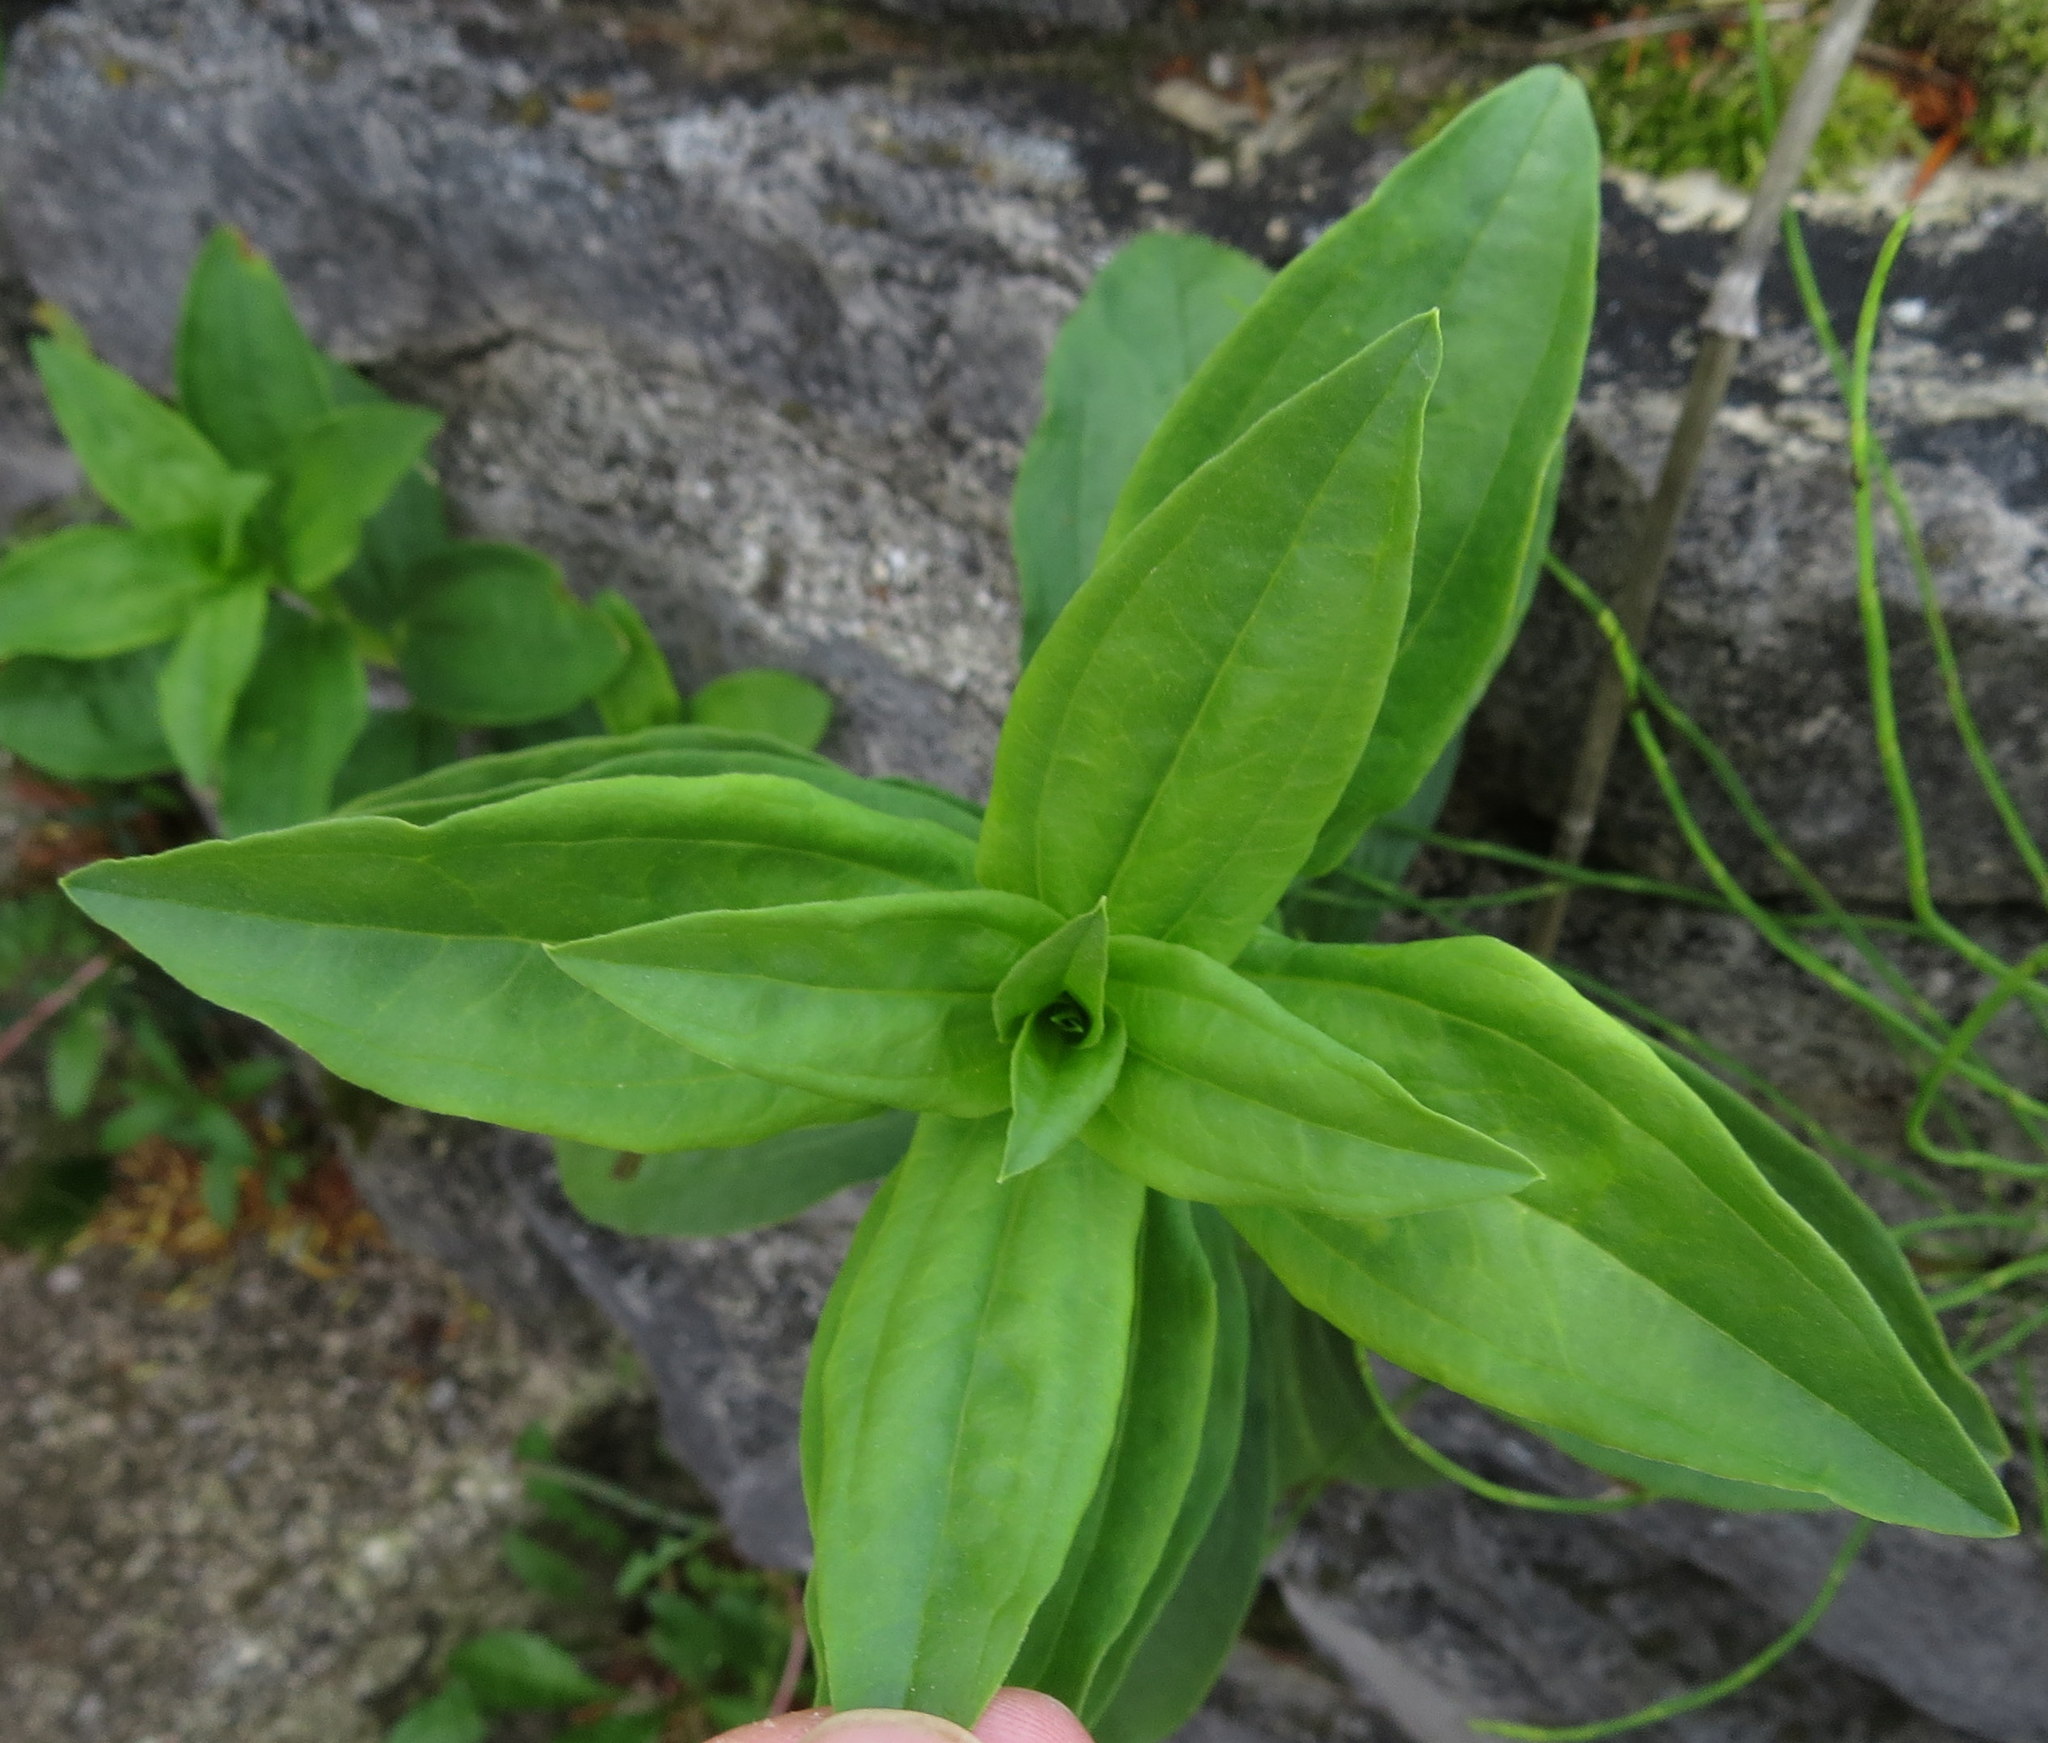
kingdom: Plantae
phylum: Tracheophyta
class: Magnoliopsida
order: Caryophyllales
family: Caryophyllaceae
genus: Saponaria
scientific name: Saponaria officinalis
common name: Soapwort
